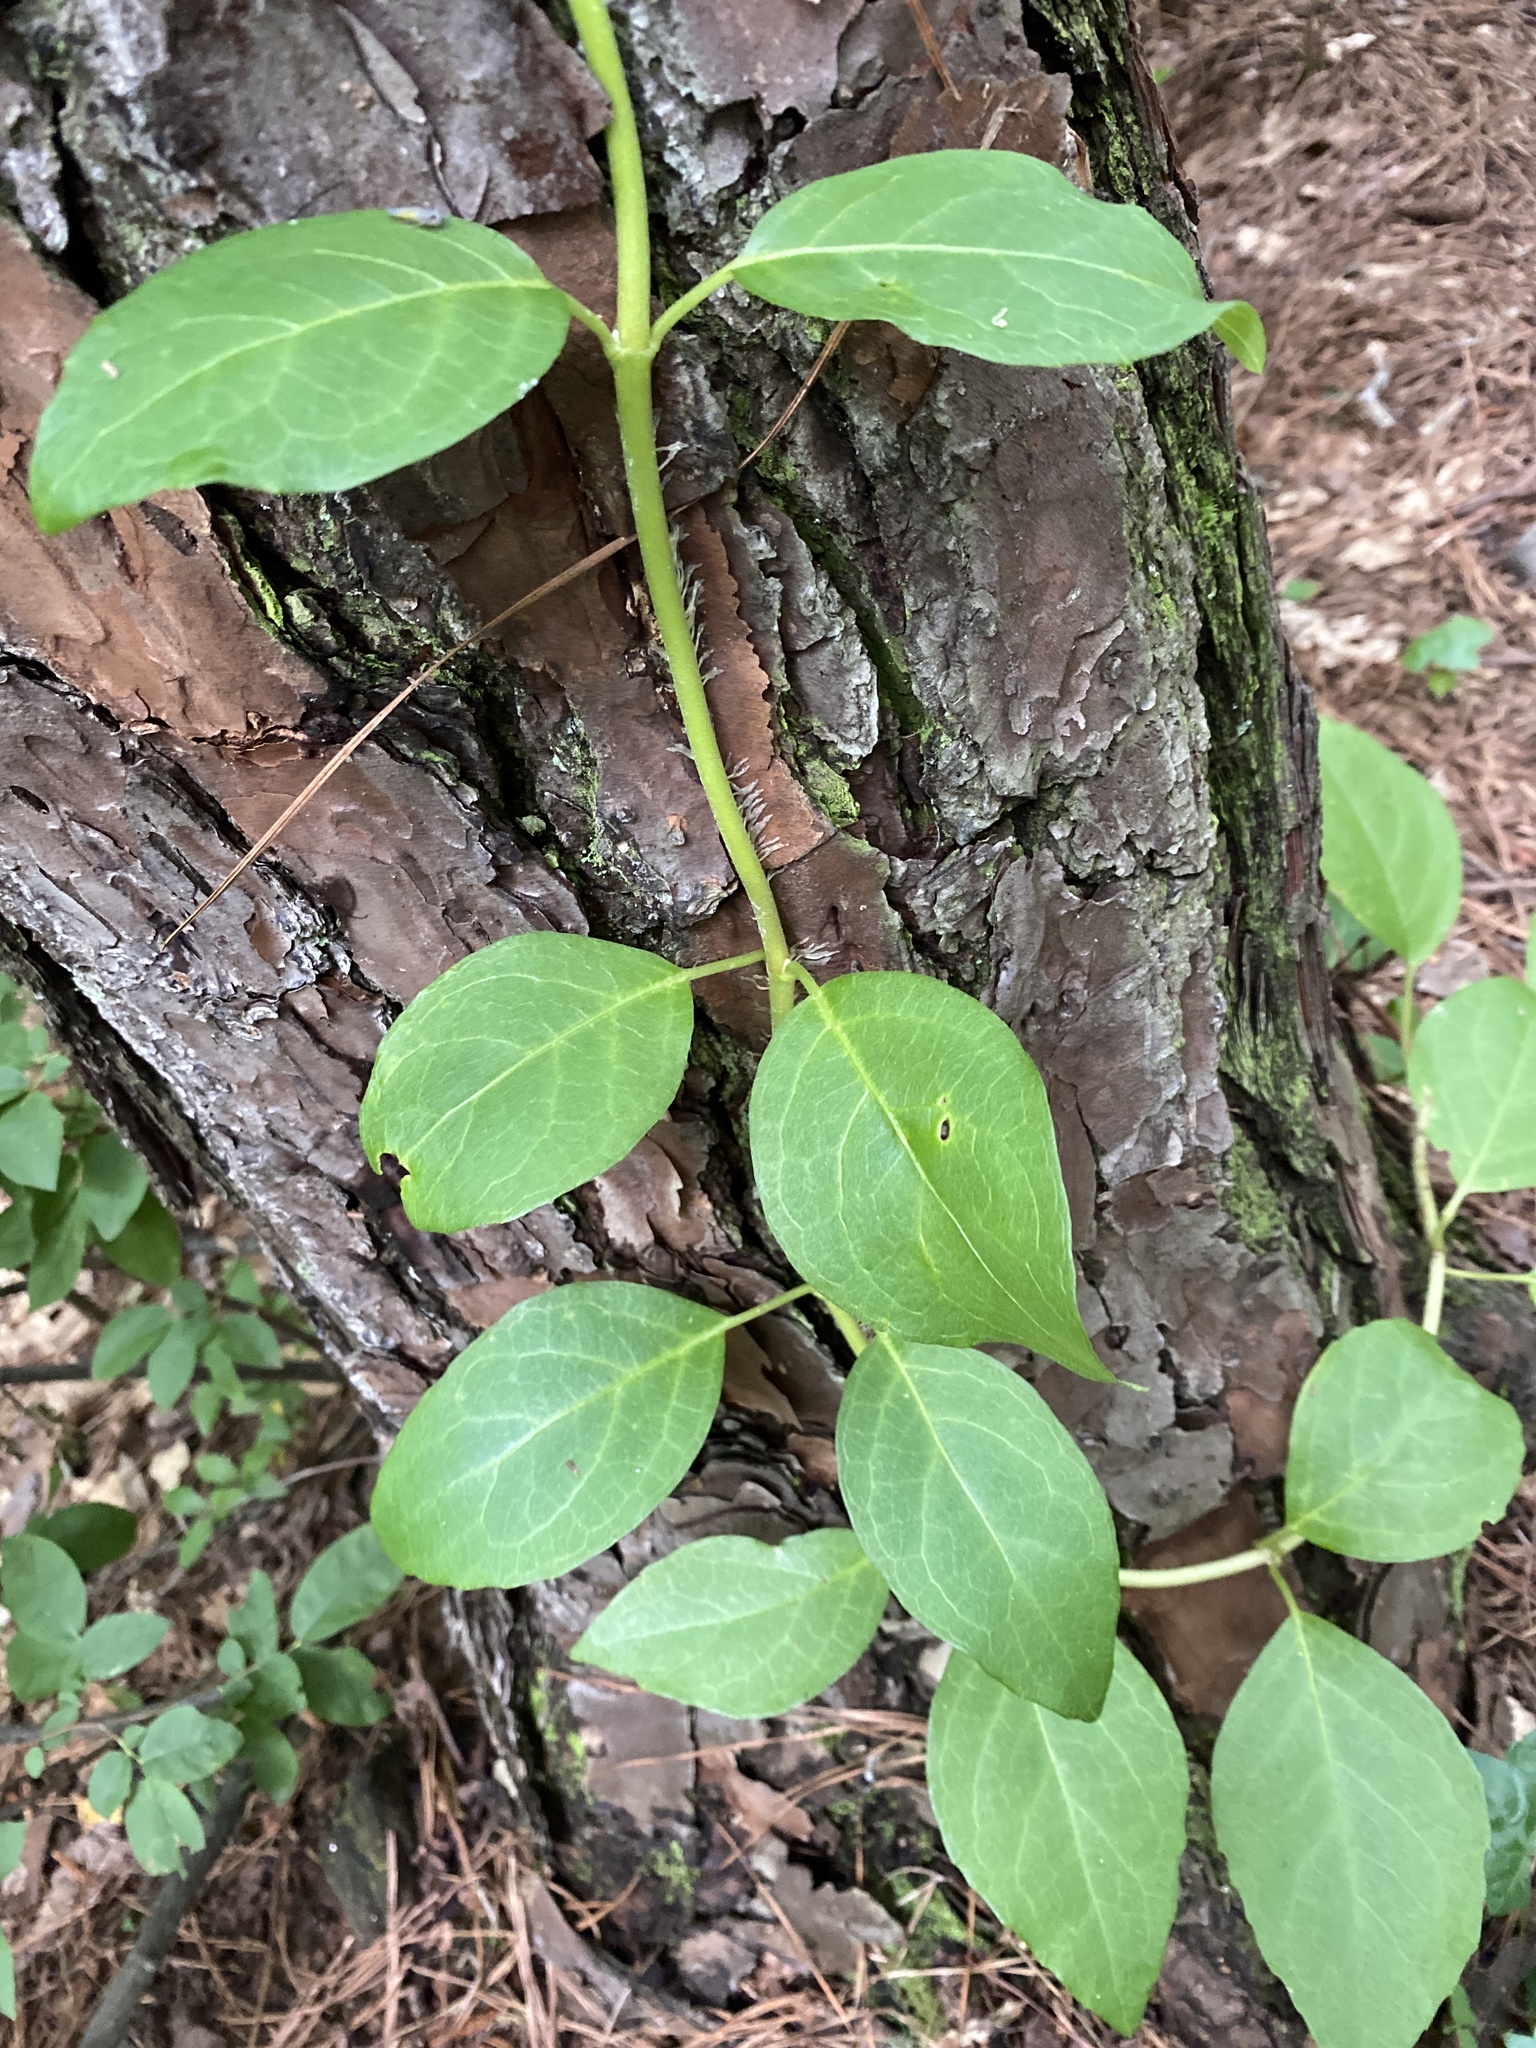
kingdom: Plantae
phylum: Tracheophyta
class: Magnoliopsida
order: Cornales
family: Hydrangeaceae
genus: Hydrangea
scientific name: Hydrangea barbara
